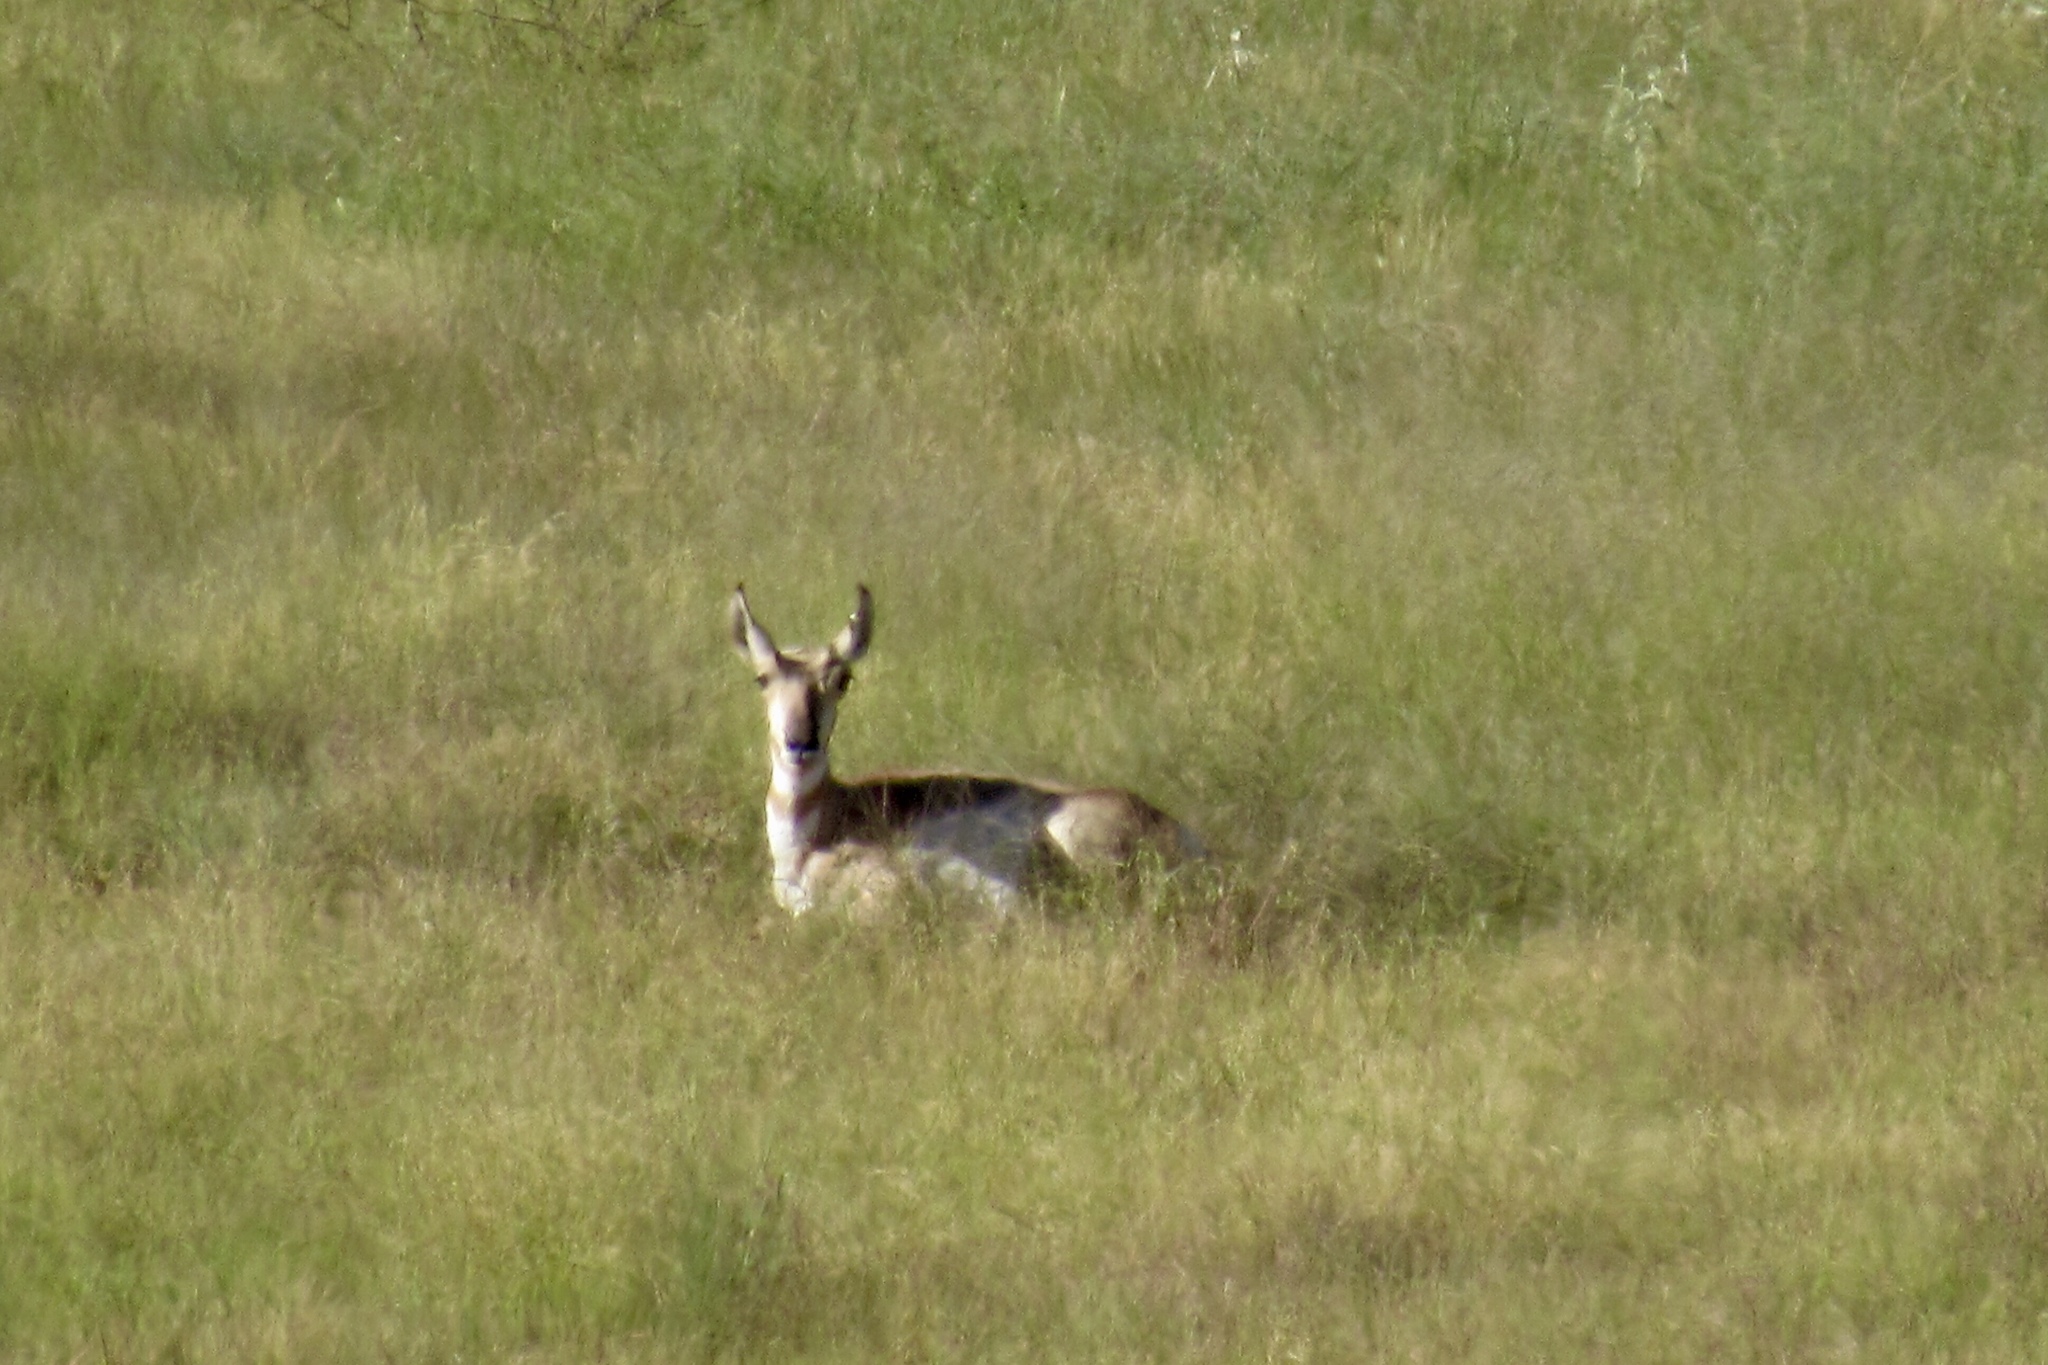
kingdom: Animalia
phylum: Chordata
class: Mammalia
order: Artiodactyla
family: Antilocapridae
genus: Antilocapra
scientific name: Antilocapra americana
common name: Pronghorn
